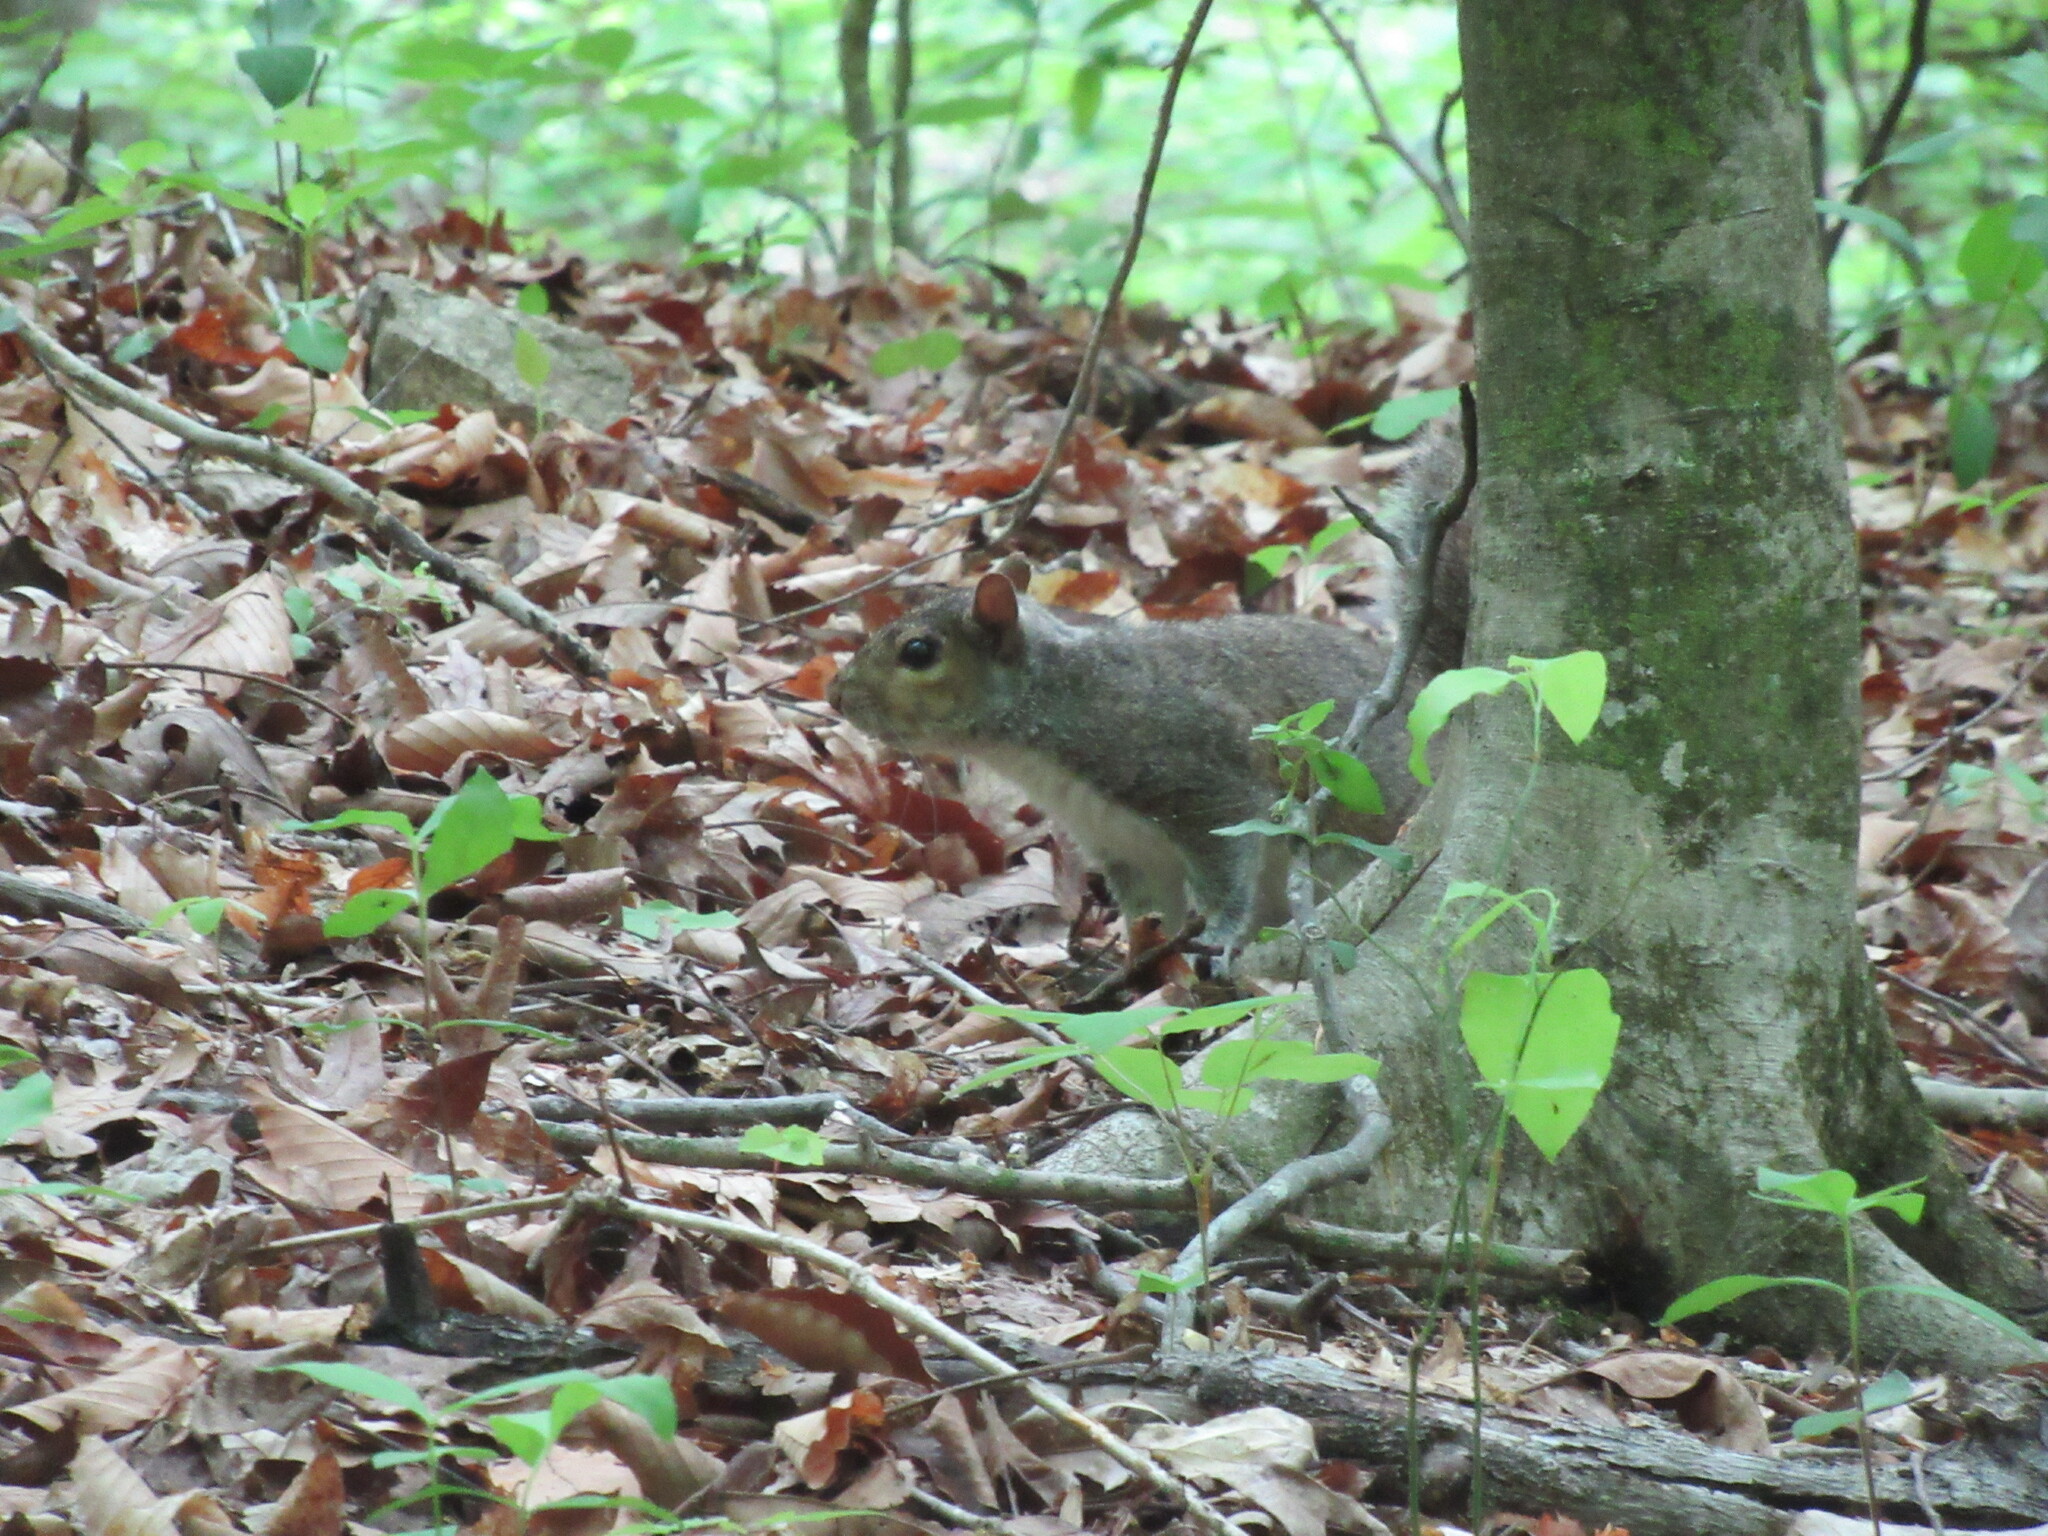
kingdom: Animalia
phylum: Chordata
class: Mammalia
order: Rodentia
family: Sciuridae
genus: Sciurus
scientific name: Sciurus carolinensis
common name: Eastern gray squirrel
